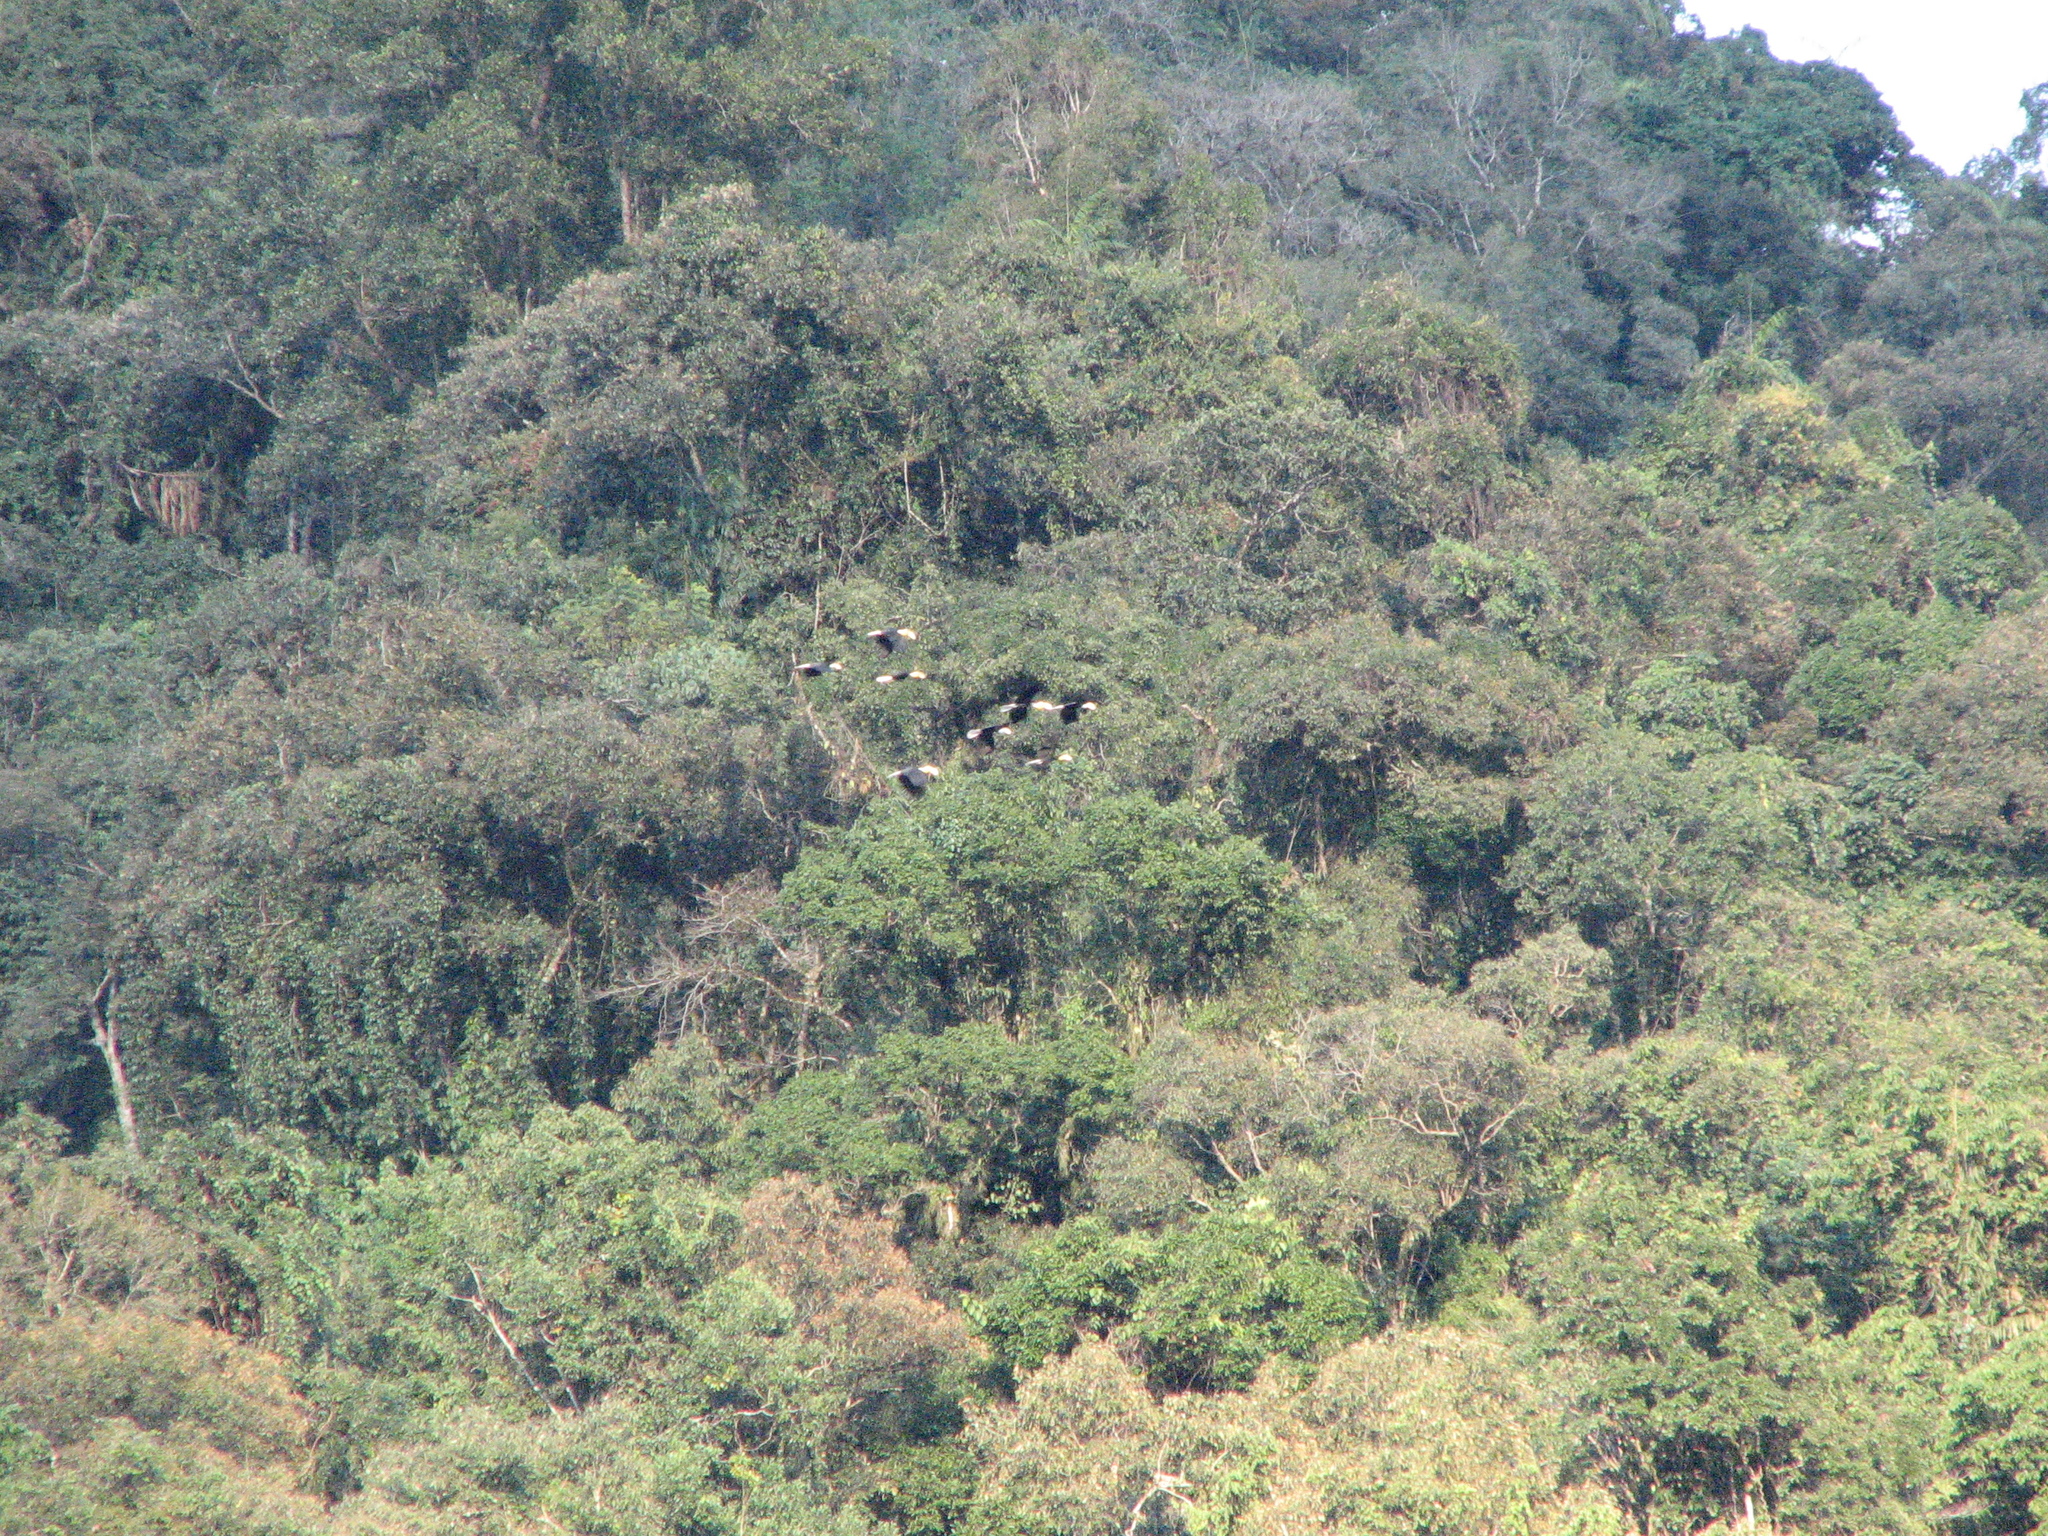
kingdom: Animalia
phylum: Chordata
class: Aves
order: Bucerotiformes
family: Bucerotidae
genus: Rhyticeros
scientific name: Rhyticeros undulatus
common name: Wreathed hornbill
